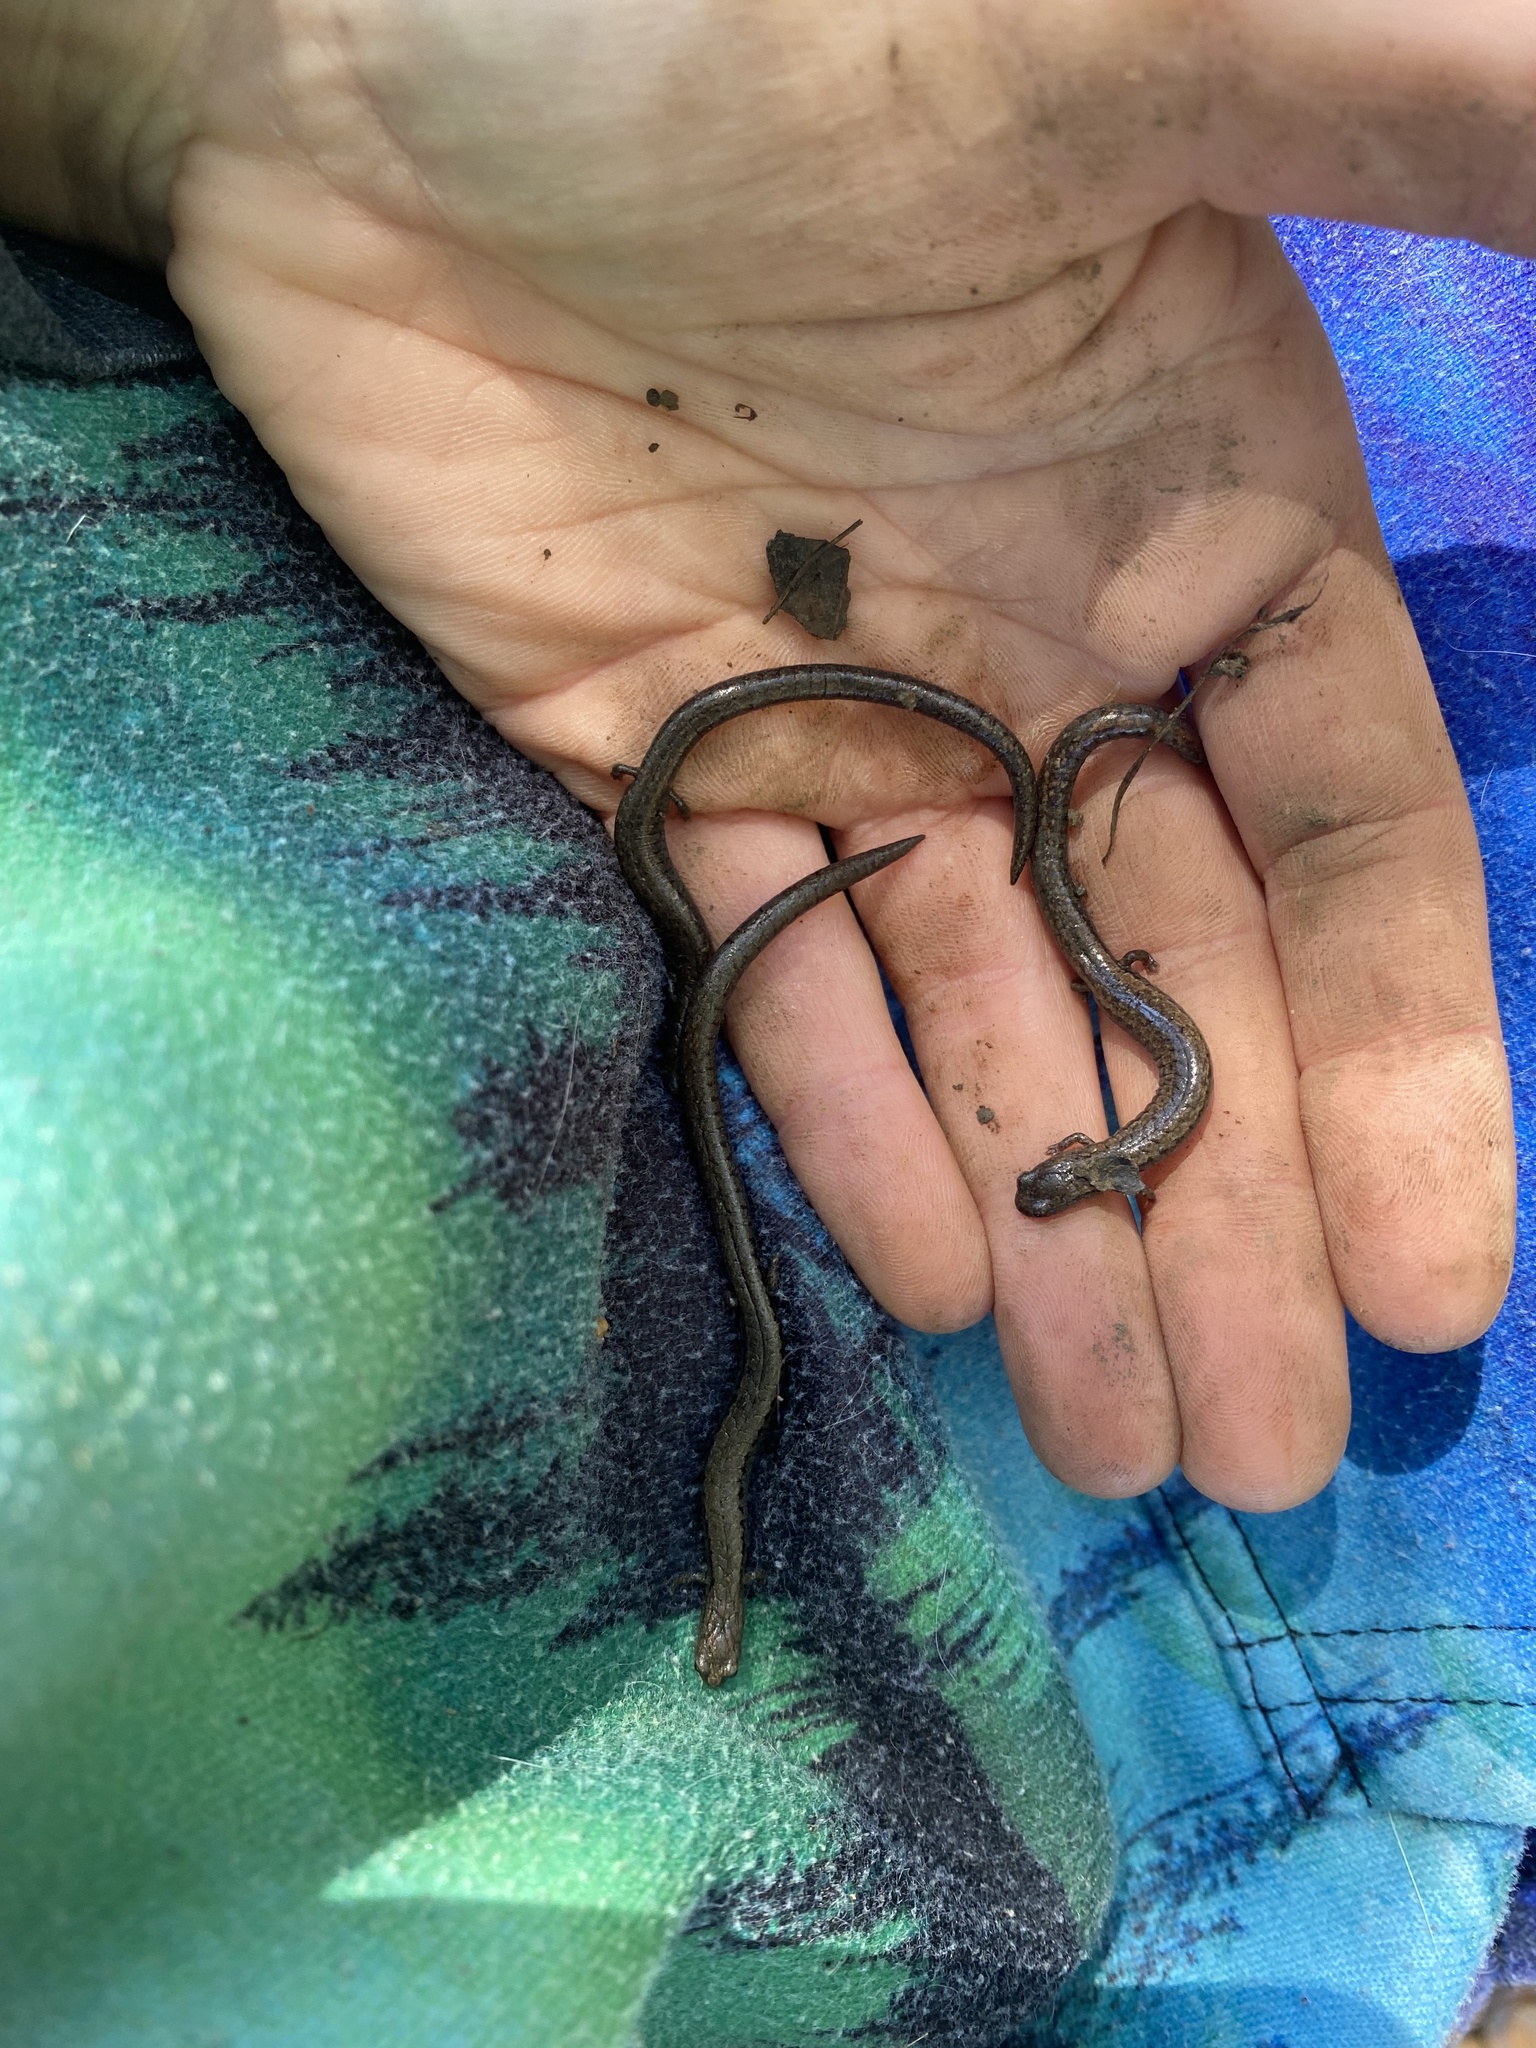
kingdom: Animalia
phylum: Chordata
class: Amphibia
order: Caudata
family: Plethodontidae
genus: Batrachoseps
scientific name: Batrachoseps nigriventris
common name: Black-bellied slender salamander
